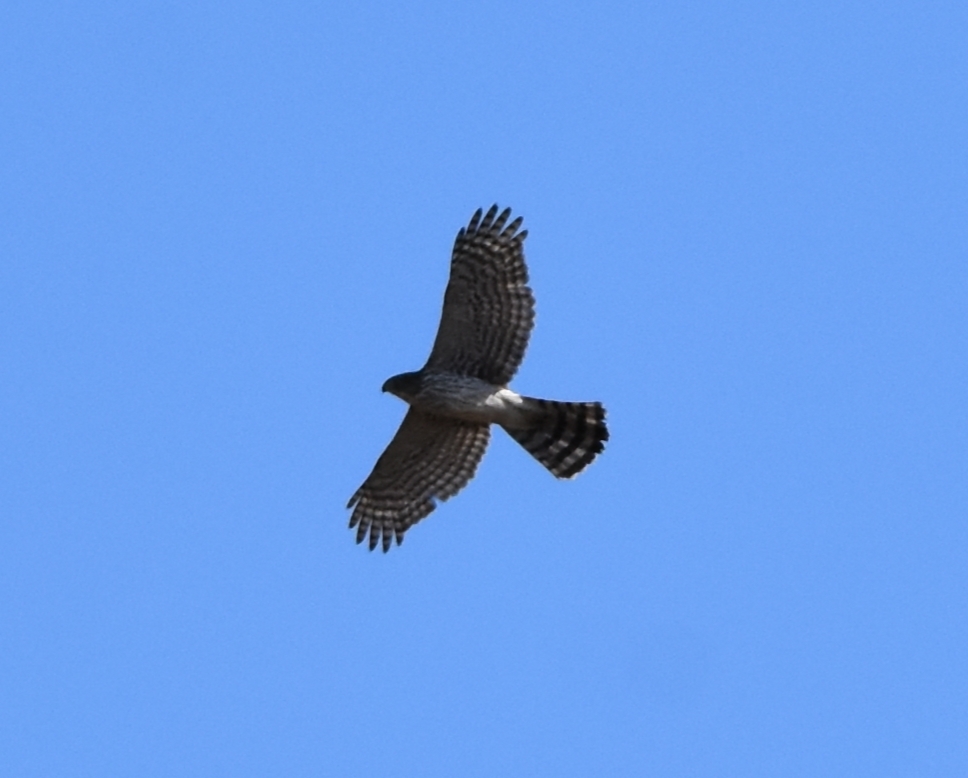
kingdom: Animalia
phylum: Chordata
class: Aves
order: Accipitriformes
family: Accipitridae
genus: Accipiter
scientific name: Accipiter cooperii
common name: Cooper's hawk
